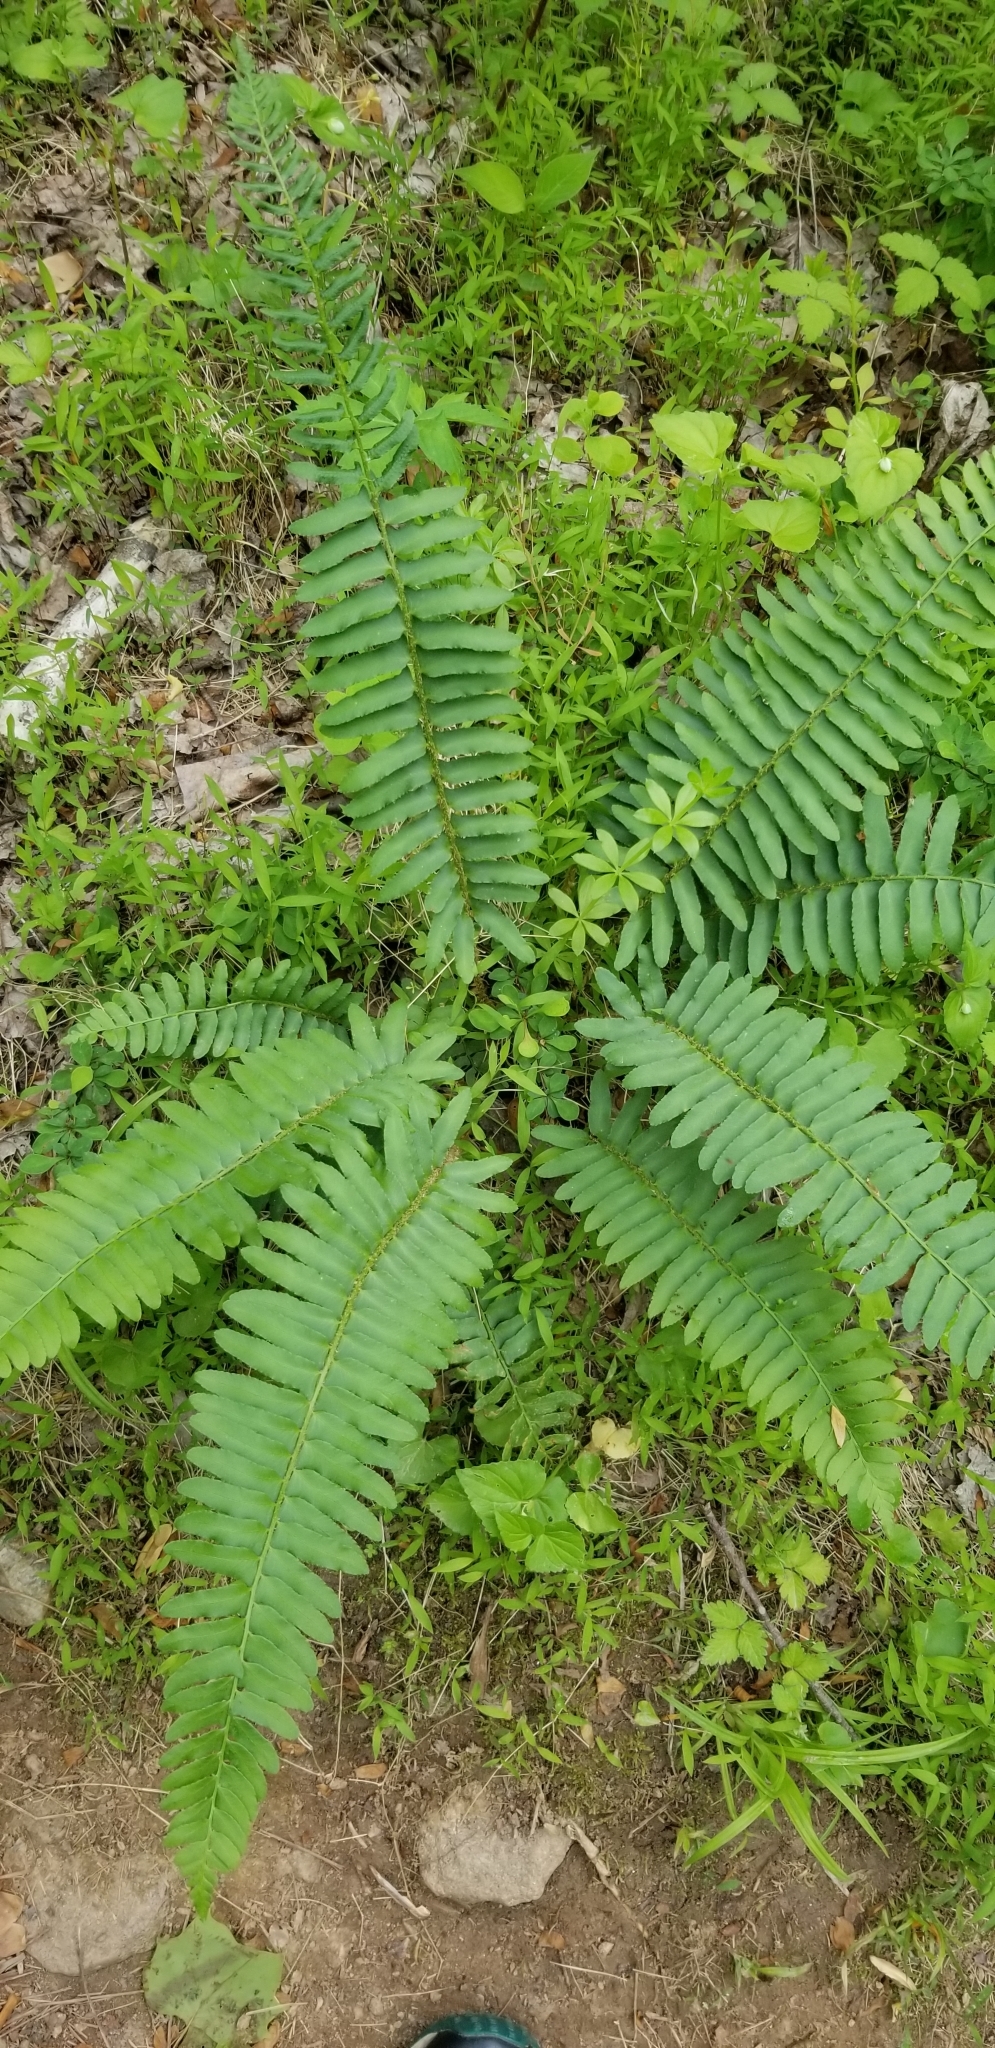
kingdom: Plantae
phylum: Tracheophyta
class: Polypodiopsida
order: Polypodiales
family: Dryopteridaceae
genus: Polystichum
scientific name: Polystichum acrostichoides
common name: Christmas fern
